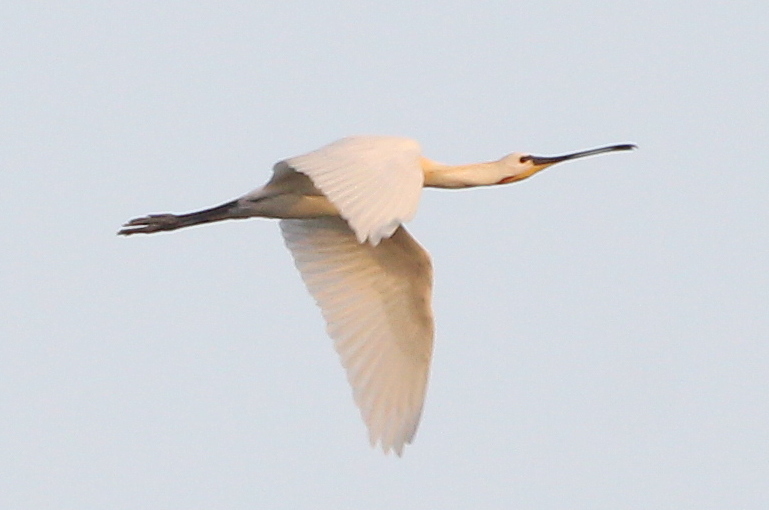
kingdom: Animalia
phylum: Chordata
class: Aves
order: Pelecaniformes
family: Threskiornithidae
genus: Platalea
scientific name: Platalea leucorodia
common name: Eurasian spoonbill
